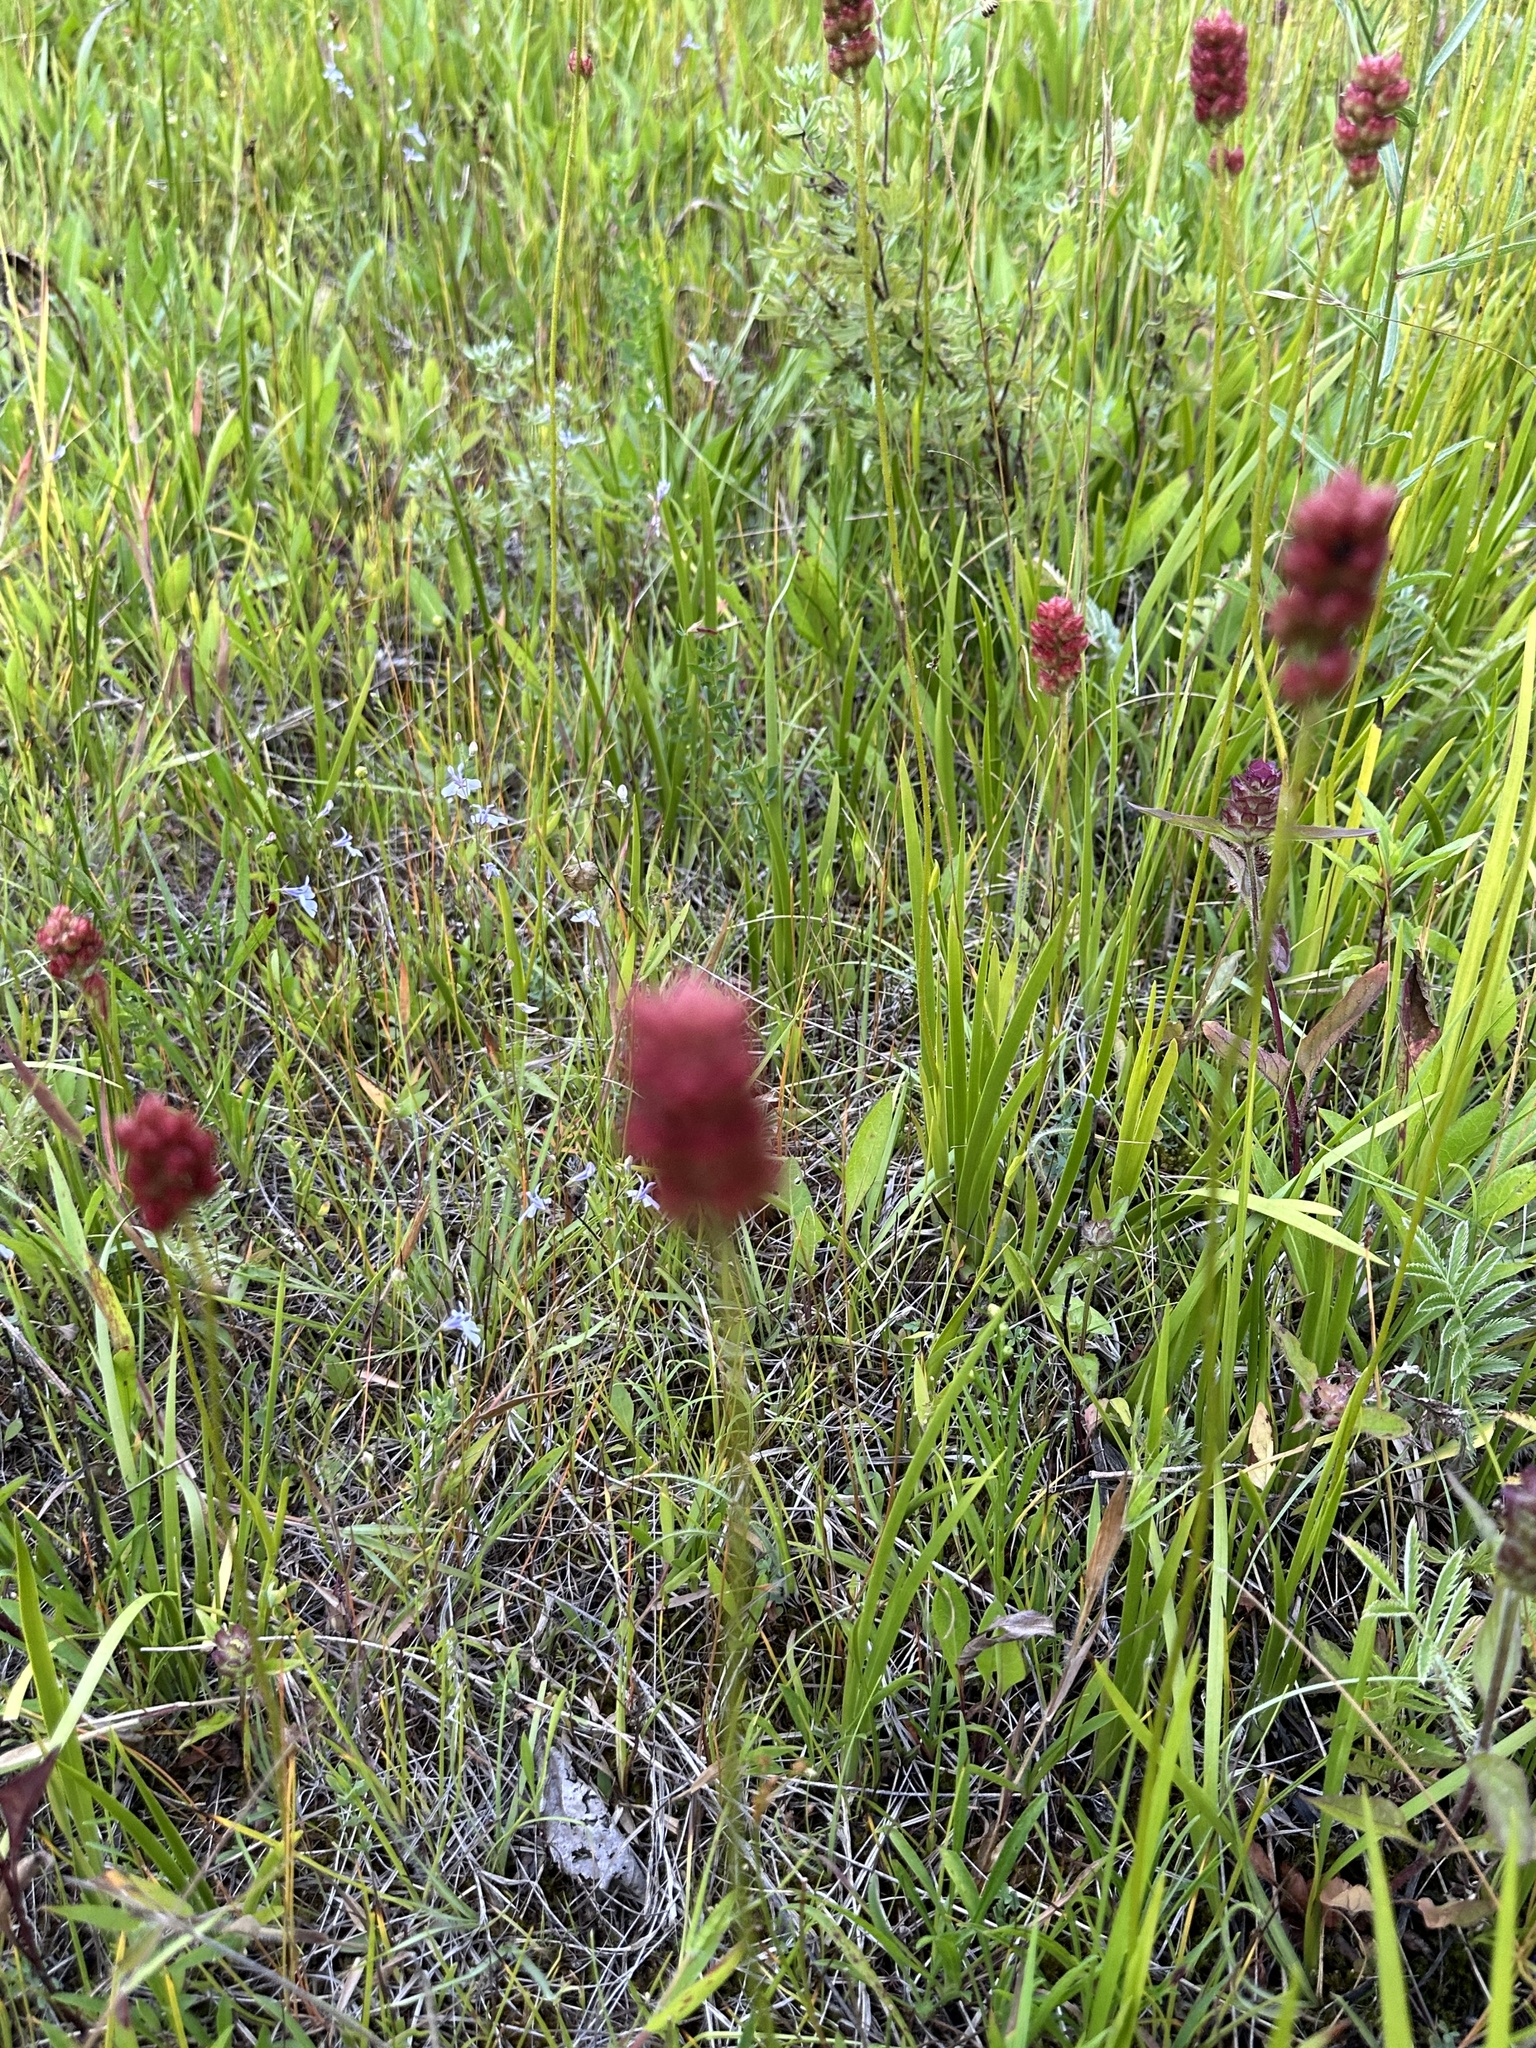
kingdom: Plantae
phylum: Tracheophyta
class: Liliopsida
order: Alismatales
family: Tofieldiaceae
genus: Triantha
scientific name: Triantha glutinosa
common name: Glutinous tofieldia
